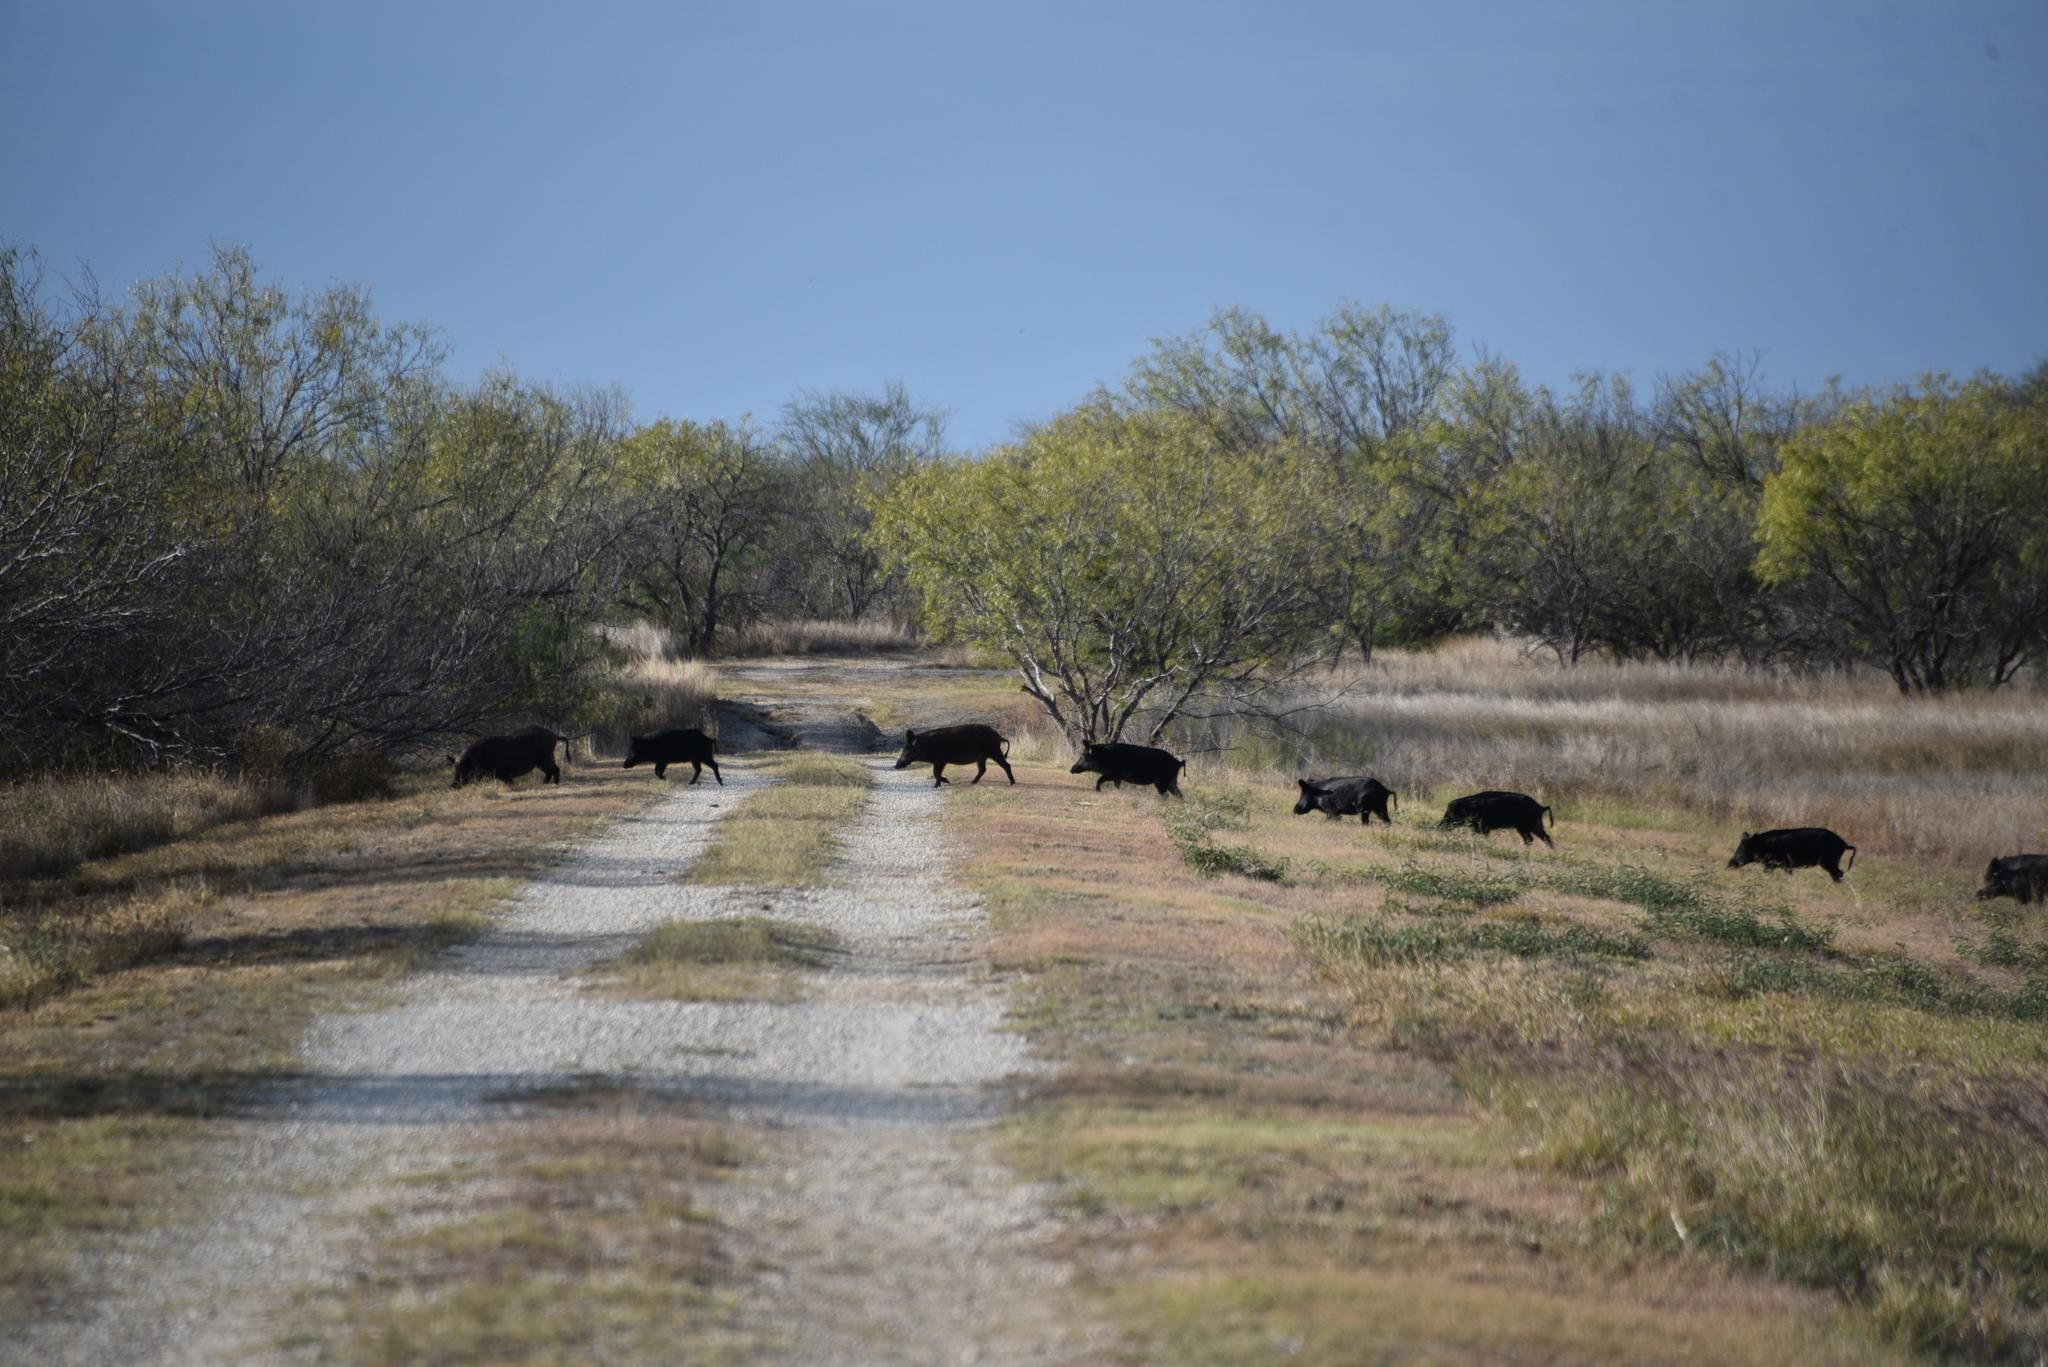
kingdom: Animalia
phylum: Chordata
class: Mammalia
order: Artiodactyla
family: Suidae
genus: Sus
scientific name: Sus scrofa
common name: Wild boar
